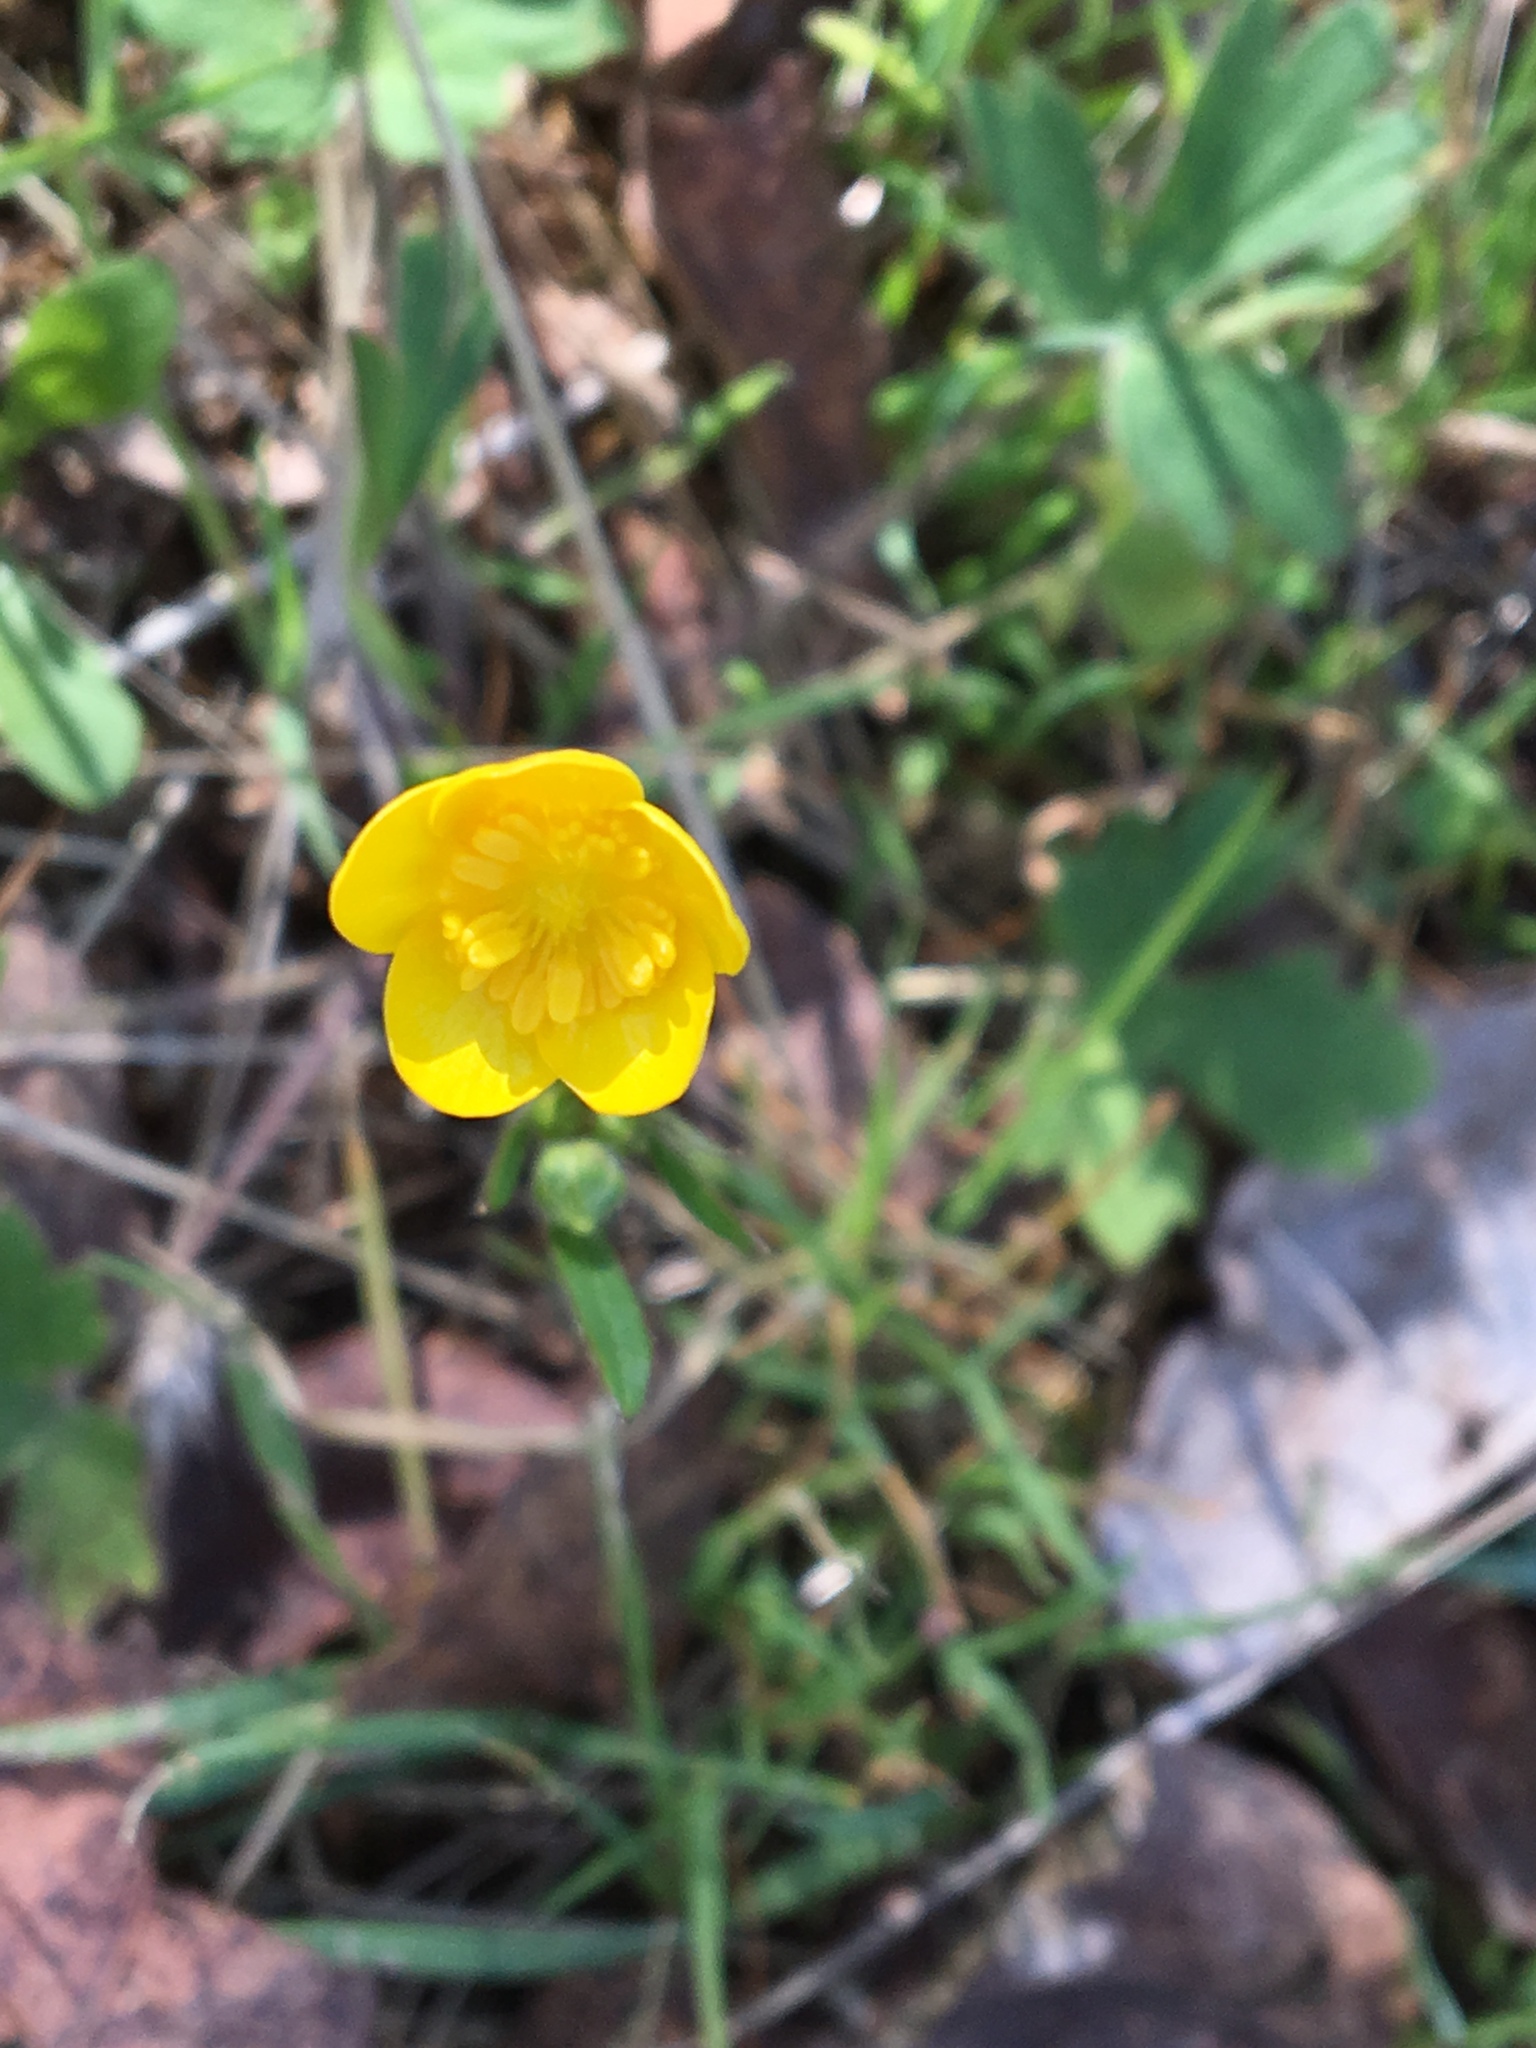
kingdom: Plantae
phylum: Tracheophyta
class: Magnoliopsida
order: Ranunculales
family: Ranunculaceae
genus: Ranunculus
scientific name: Ranunculus occidentalis
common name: Western buttercup
